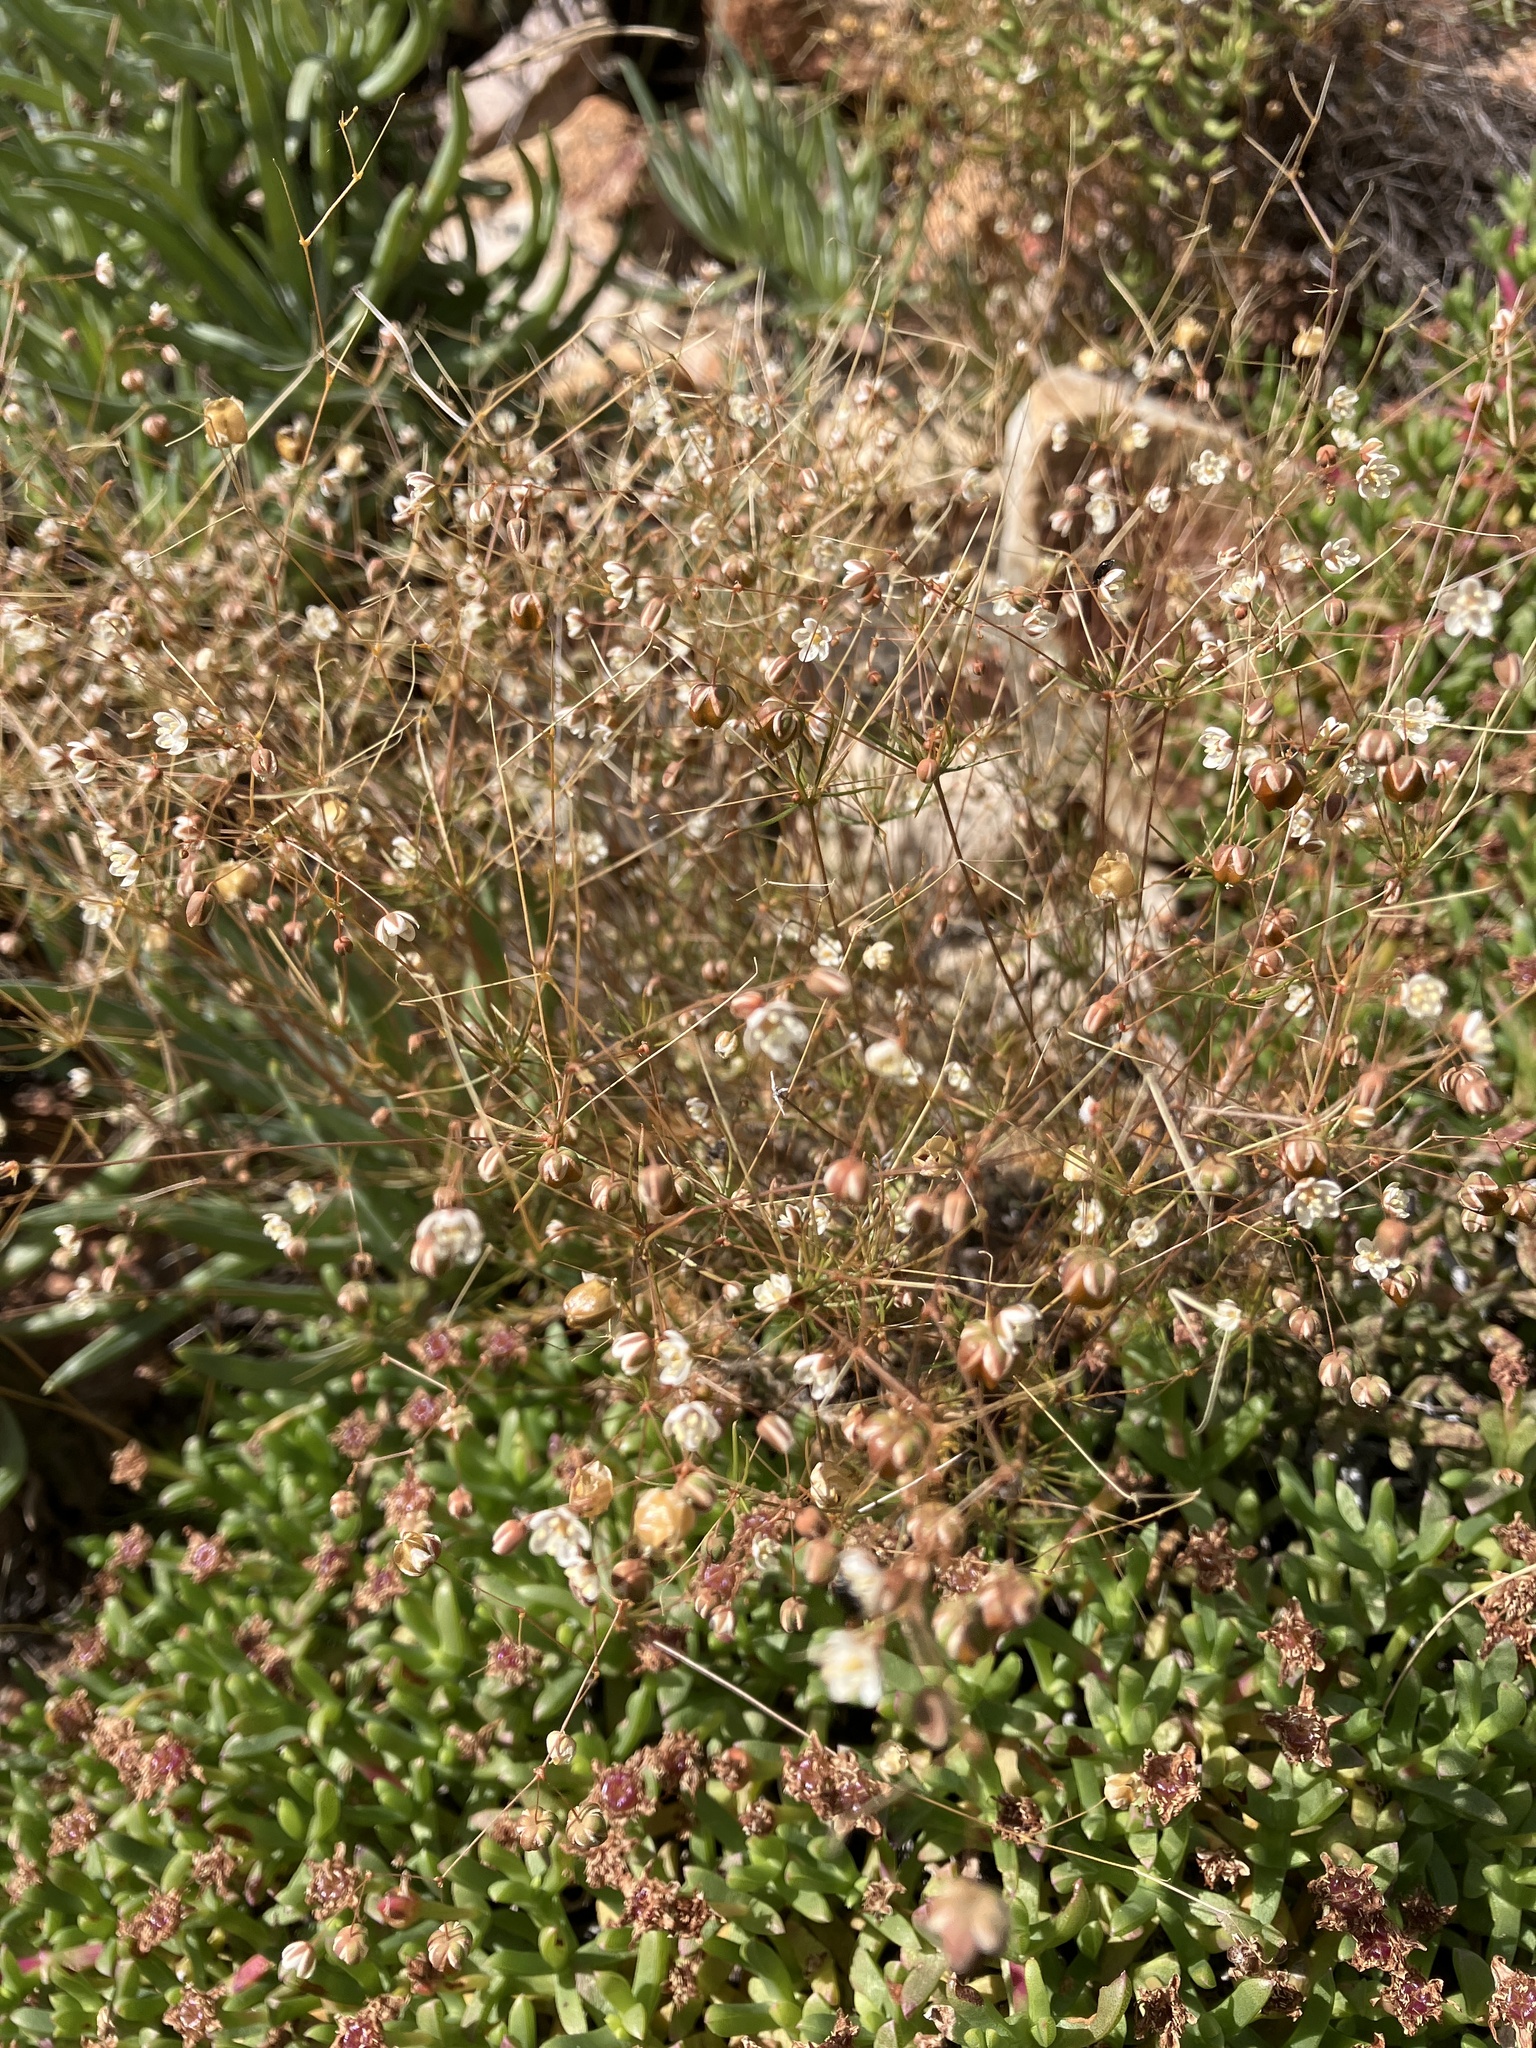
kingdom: Plantae
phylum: Tracheophyta
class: Magnoliopsida
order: Caryophyllales
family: Molluginaceae
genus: Pharnaceum
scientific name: Pharnaceum ciliare
